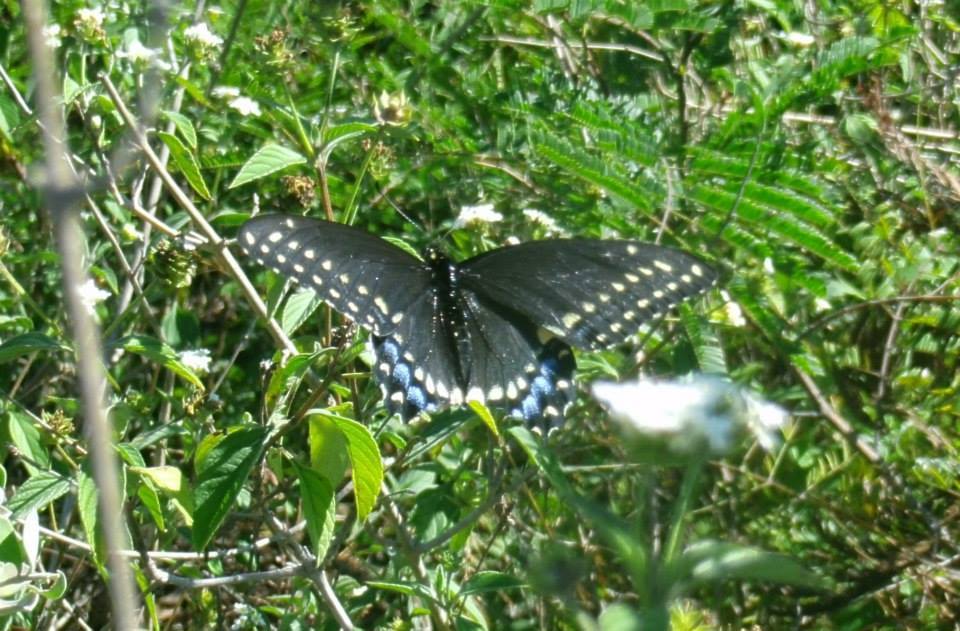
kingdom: Animalia
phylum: Arthropoda
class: Insecta
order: Lepidoptera
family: Papilionidae
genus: Papilio
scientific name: Papilio polyxenes
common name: Black swallowtail
